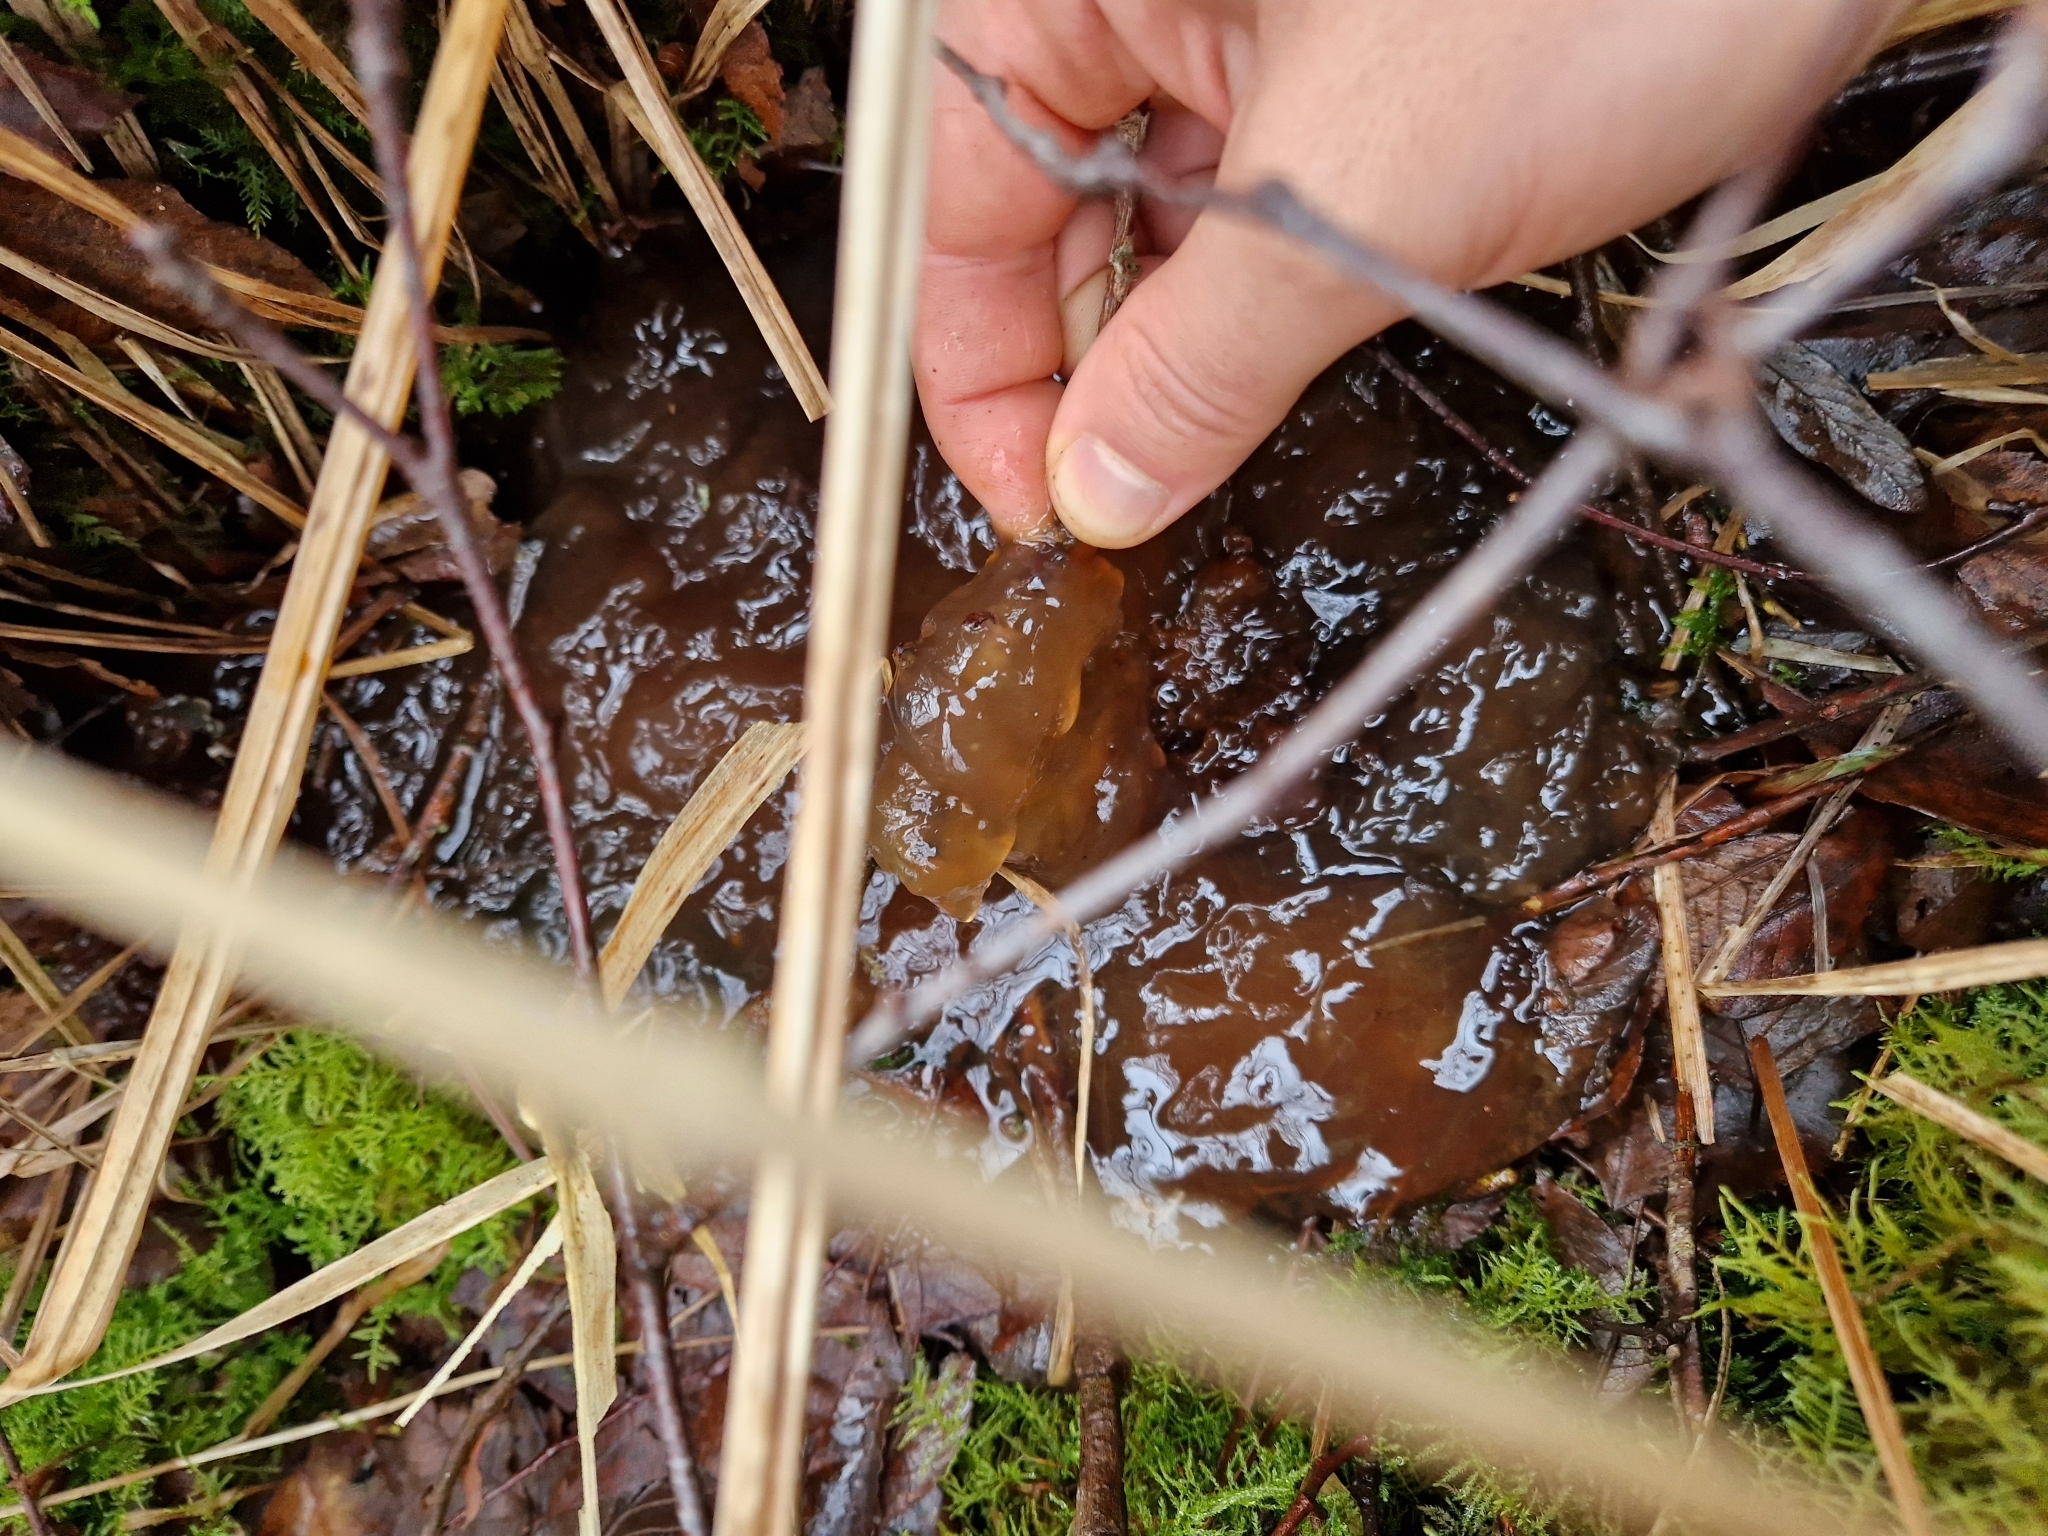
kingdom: Fungi
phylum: Basidiomycota
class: Tremellomycetes
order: Tremellales
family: Tremellaceae
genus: Phaeotremella
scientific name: Phaeotremella frondosa
